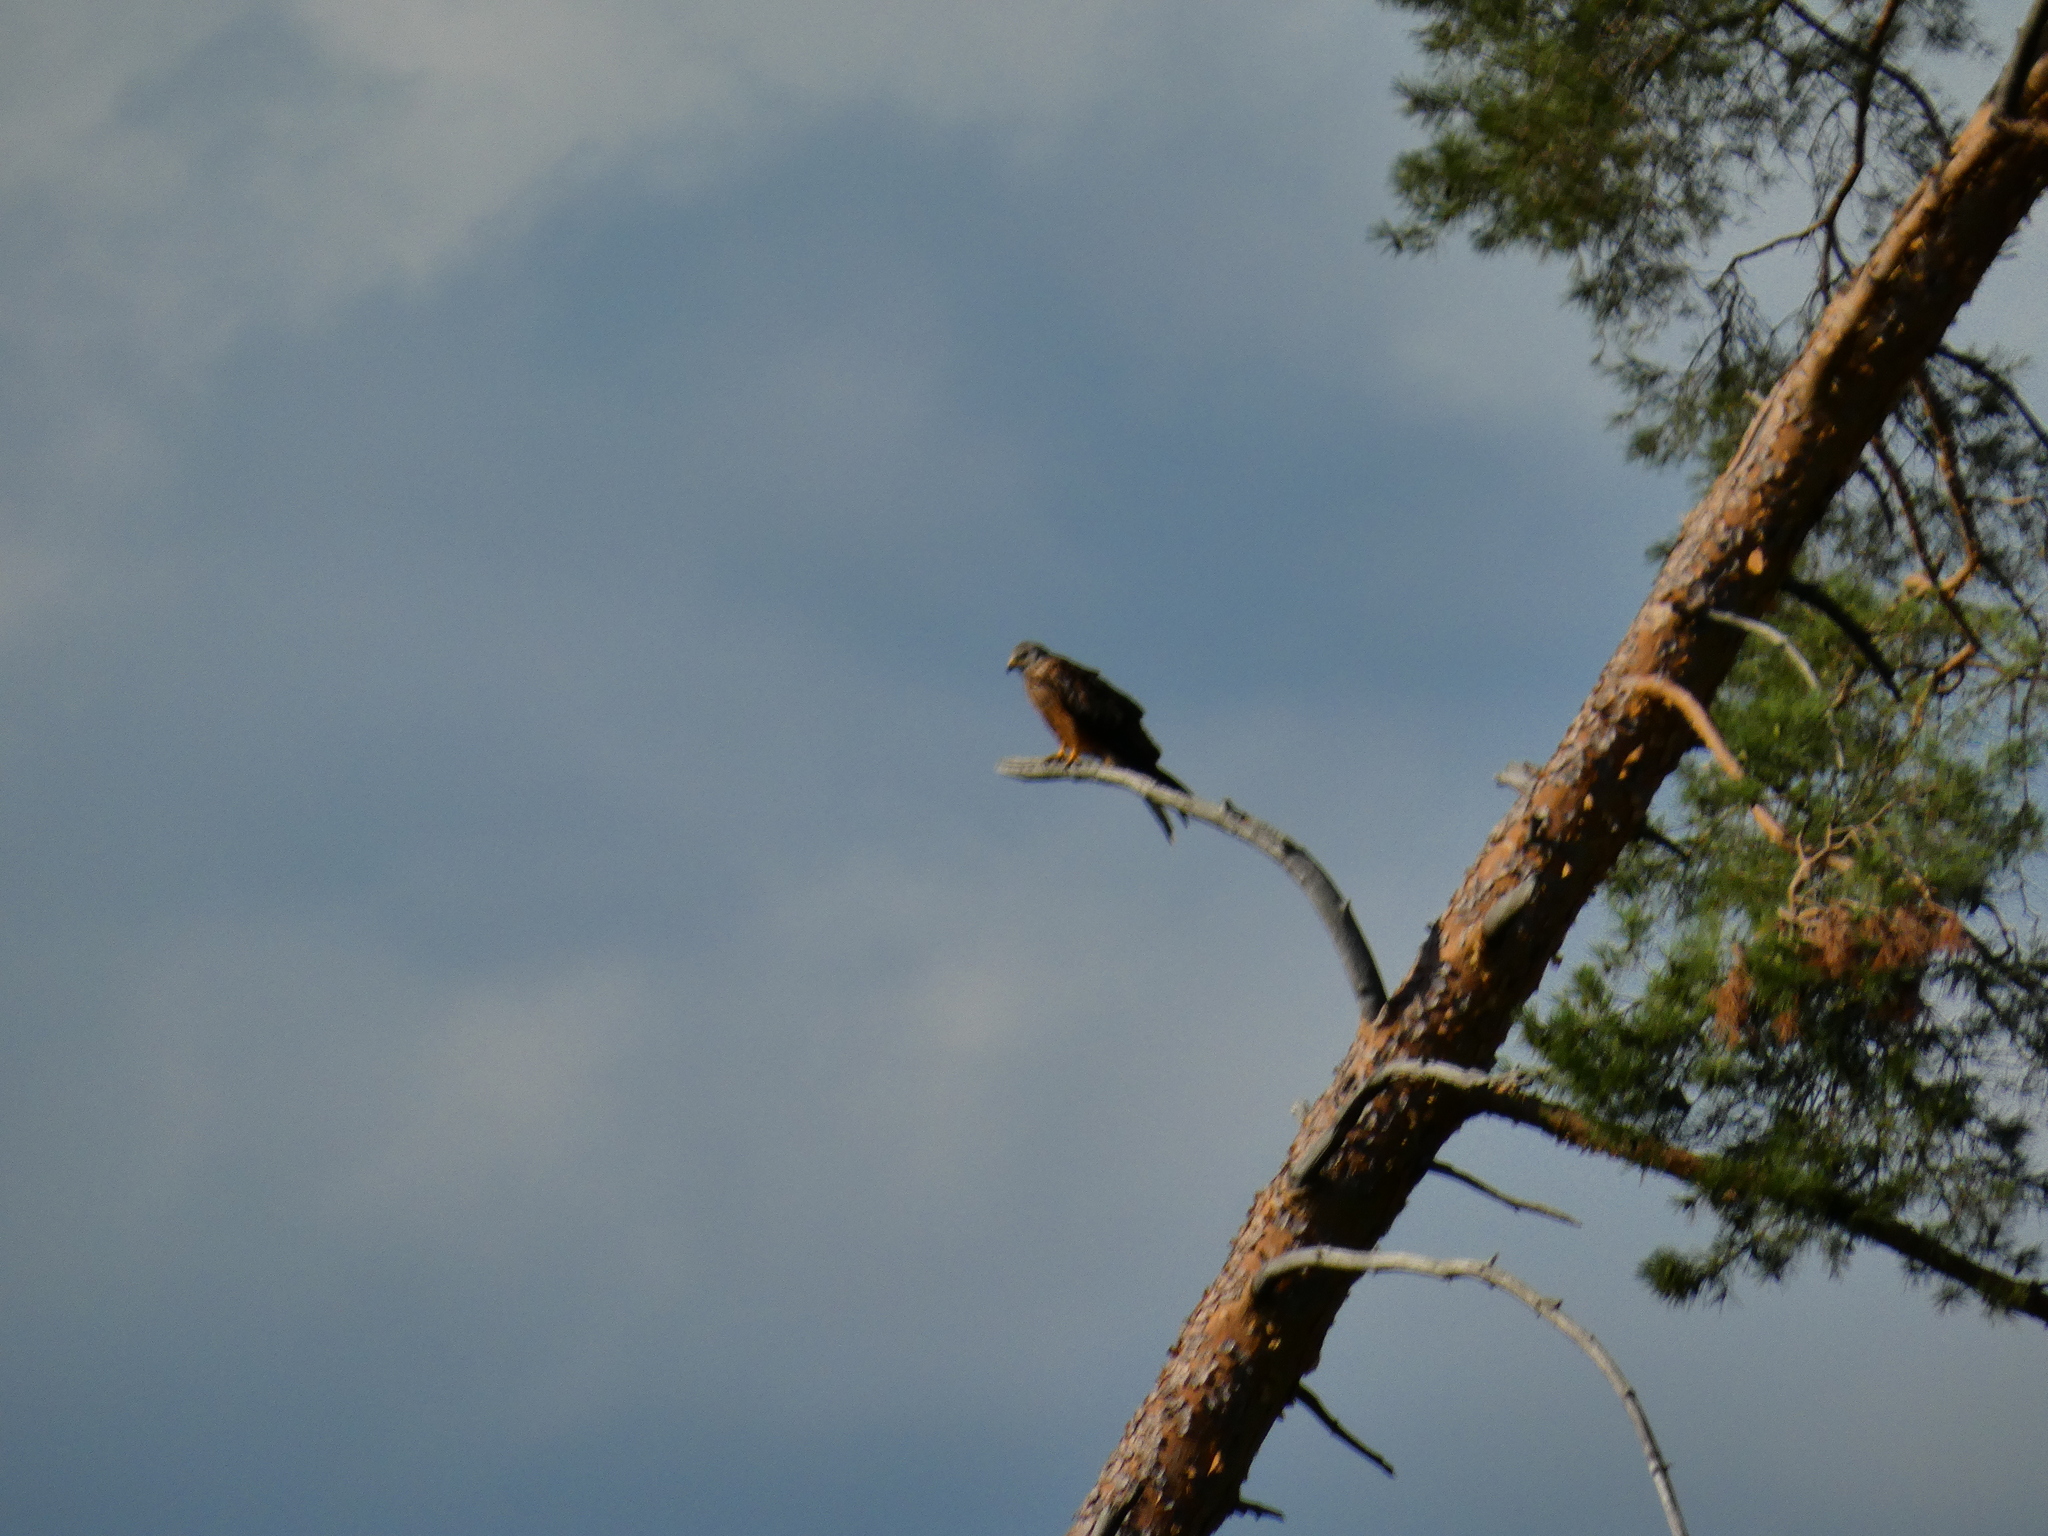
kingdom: Animalia
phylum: Chordata
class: Aves
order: Accipitriformes
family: Accipitridae
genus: Milvus
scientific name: Milvus milvus
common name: Red kite
